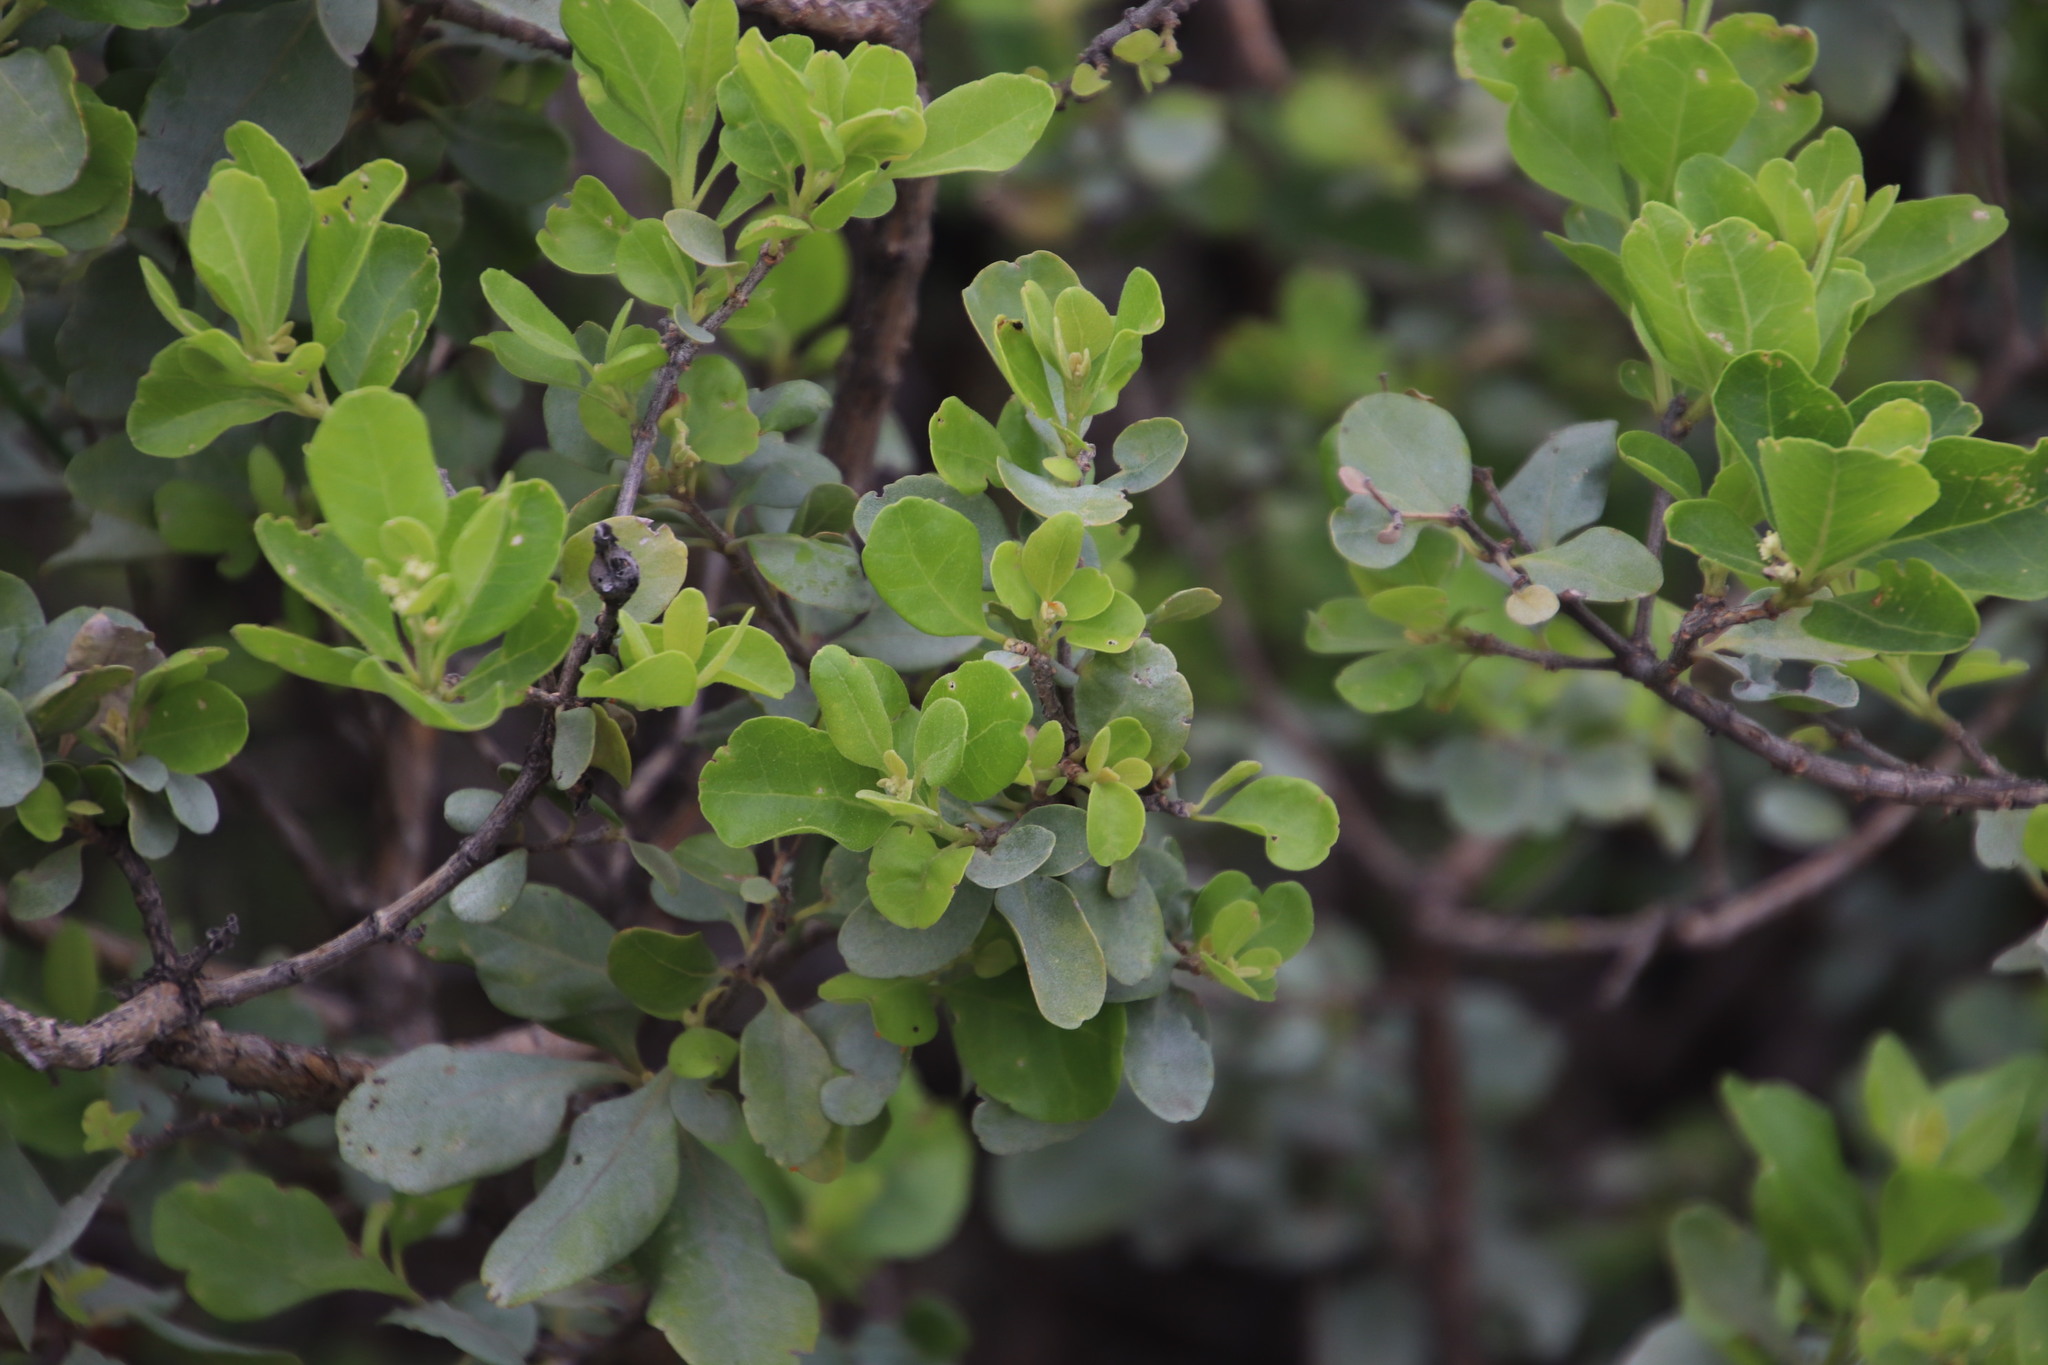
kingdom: Plantae
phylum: Tracheophyta
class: Magnoliopsida
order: Lamiales
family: Stilbaceae
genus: Nuxia
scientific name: Nuxia congesta
